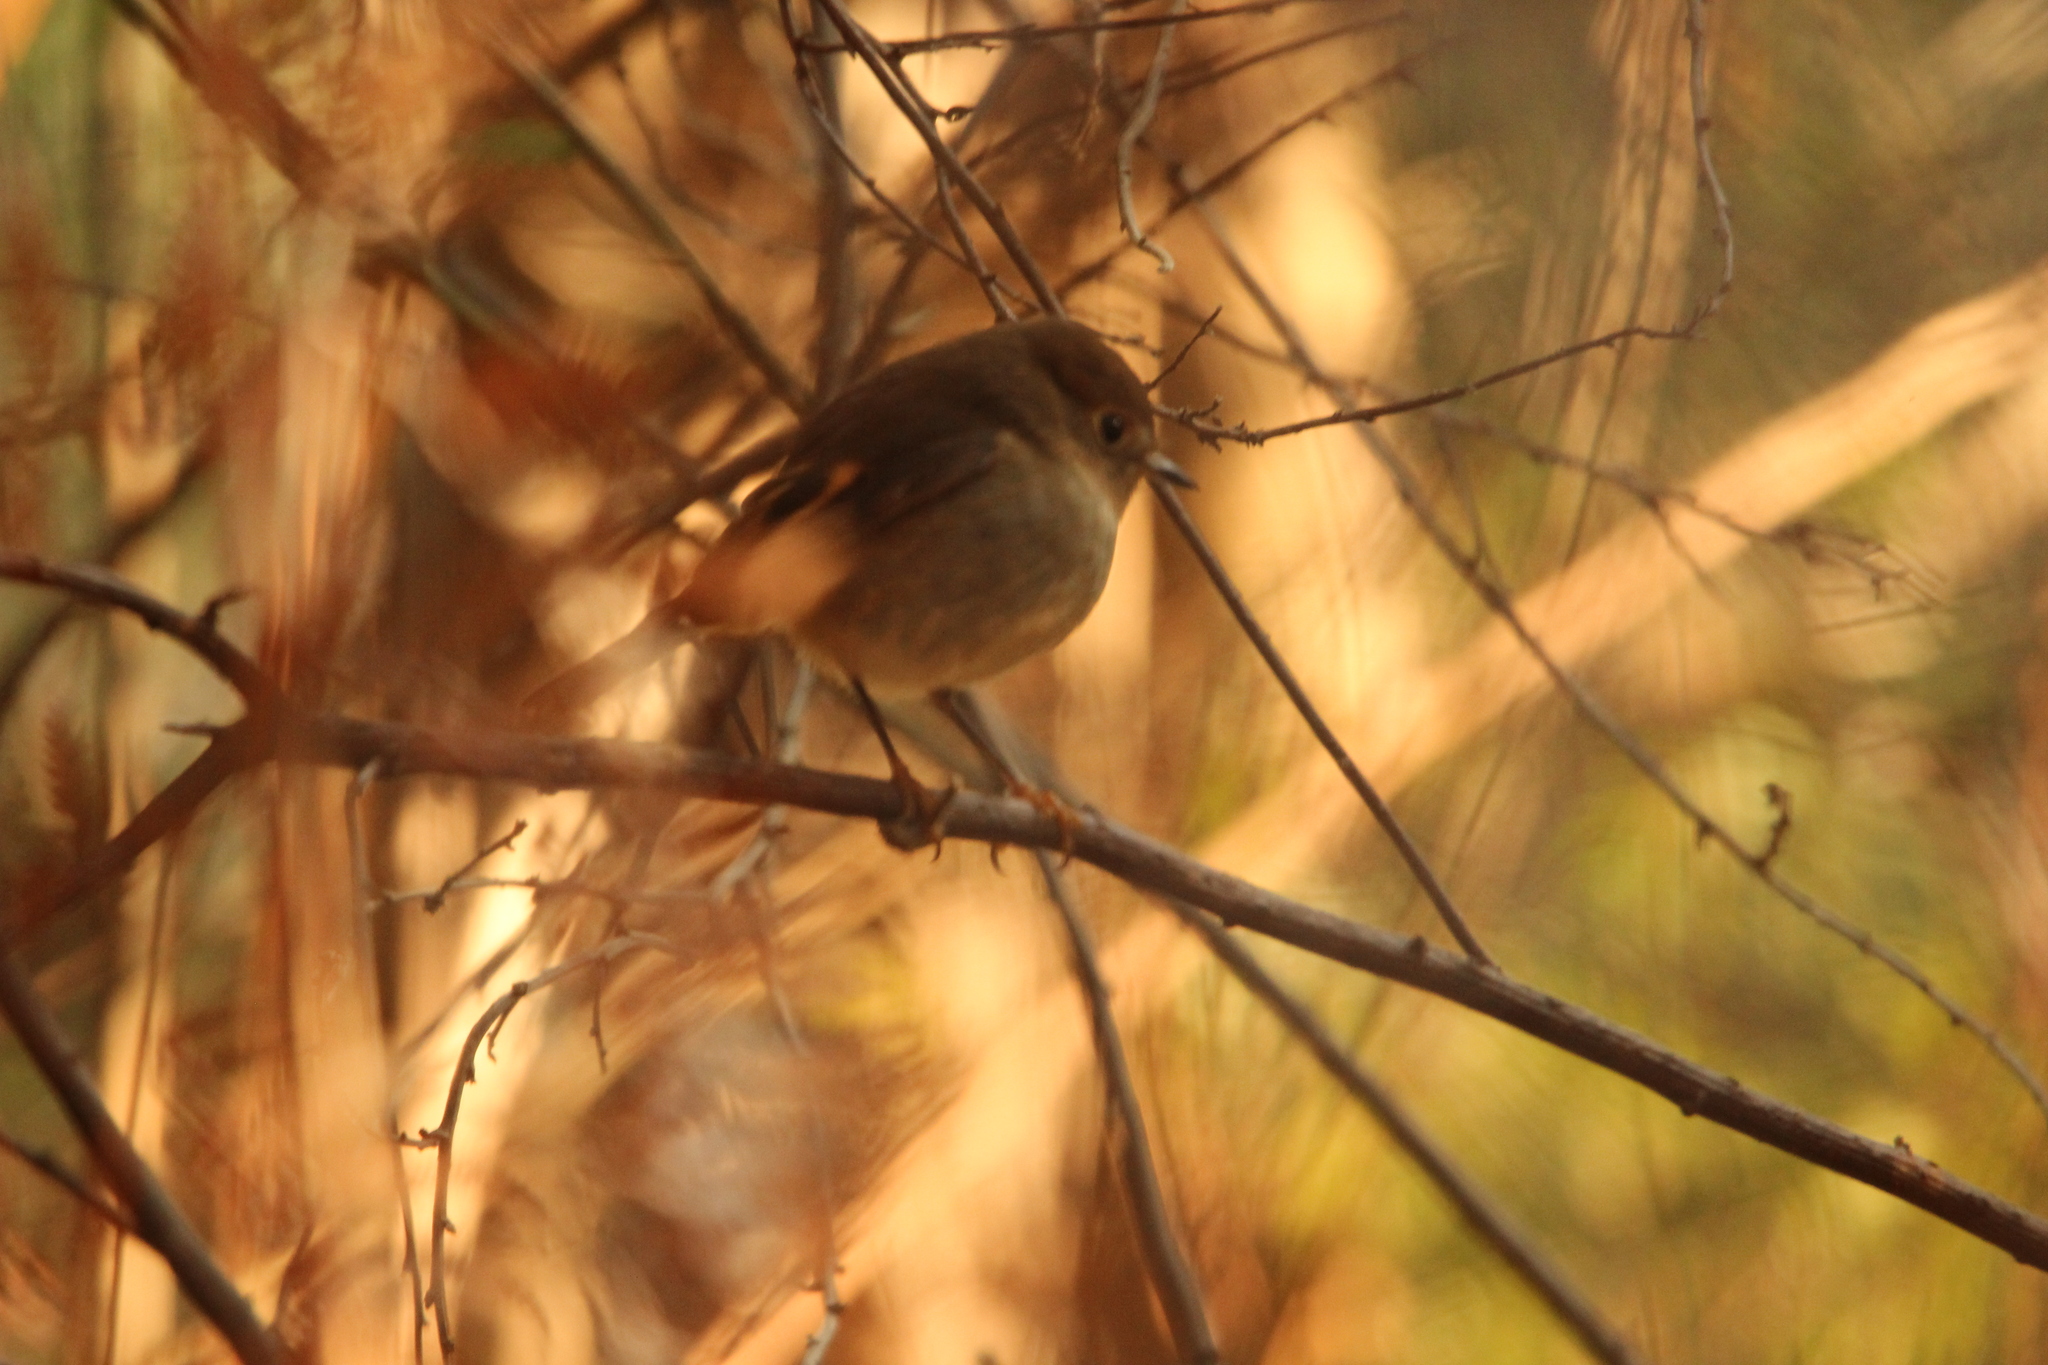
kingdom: Animalia
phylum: Chordata
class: Aves
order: Passeriformes
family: Petroicidae
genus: Petroica
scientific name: Petroica rodinogaster
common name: Pink robin
